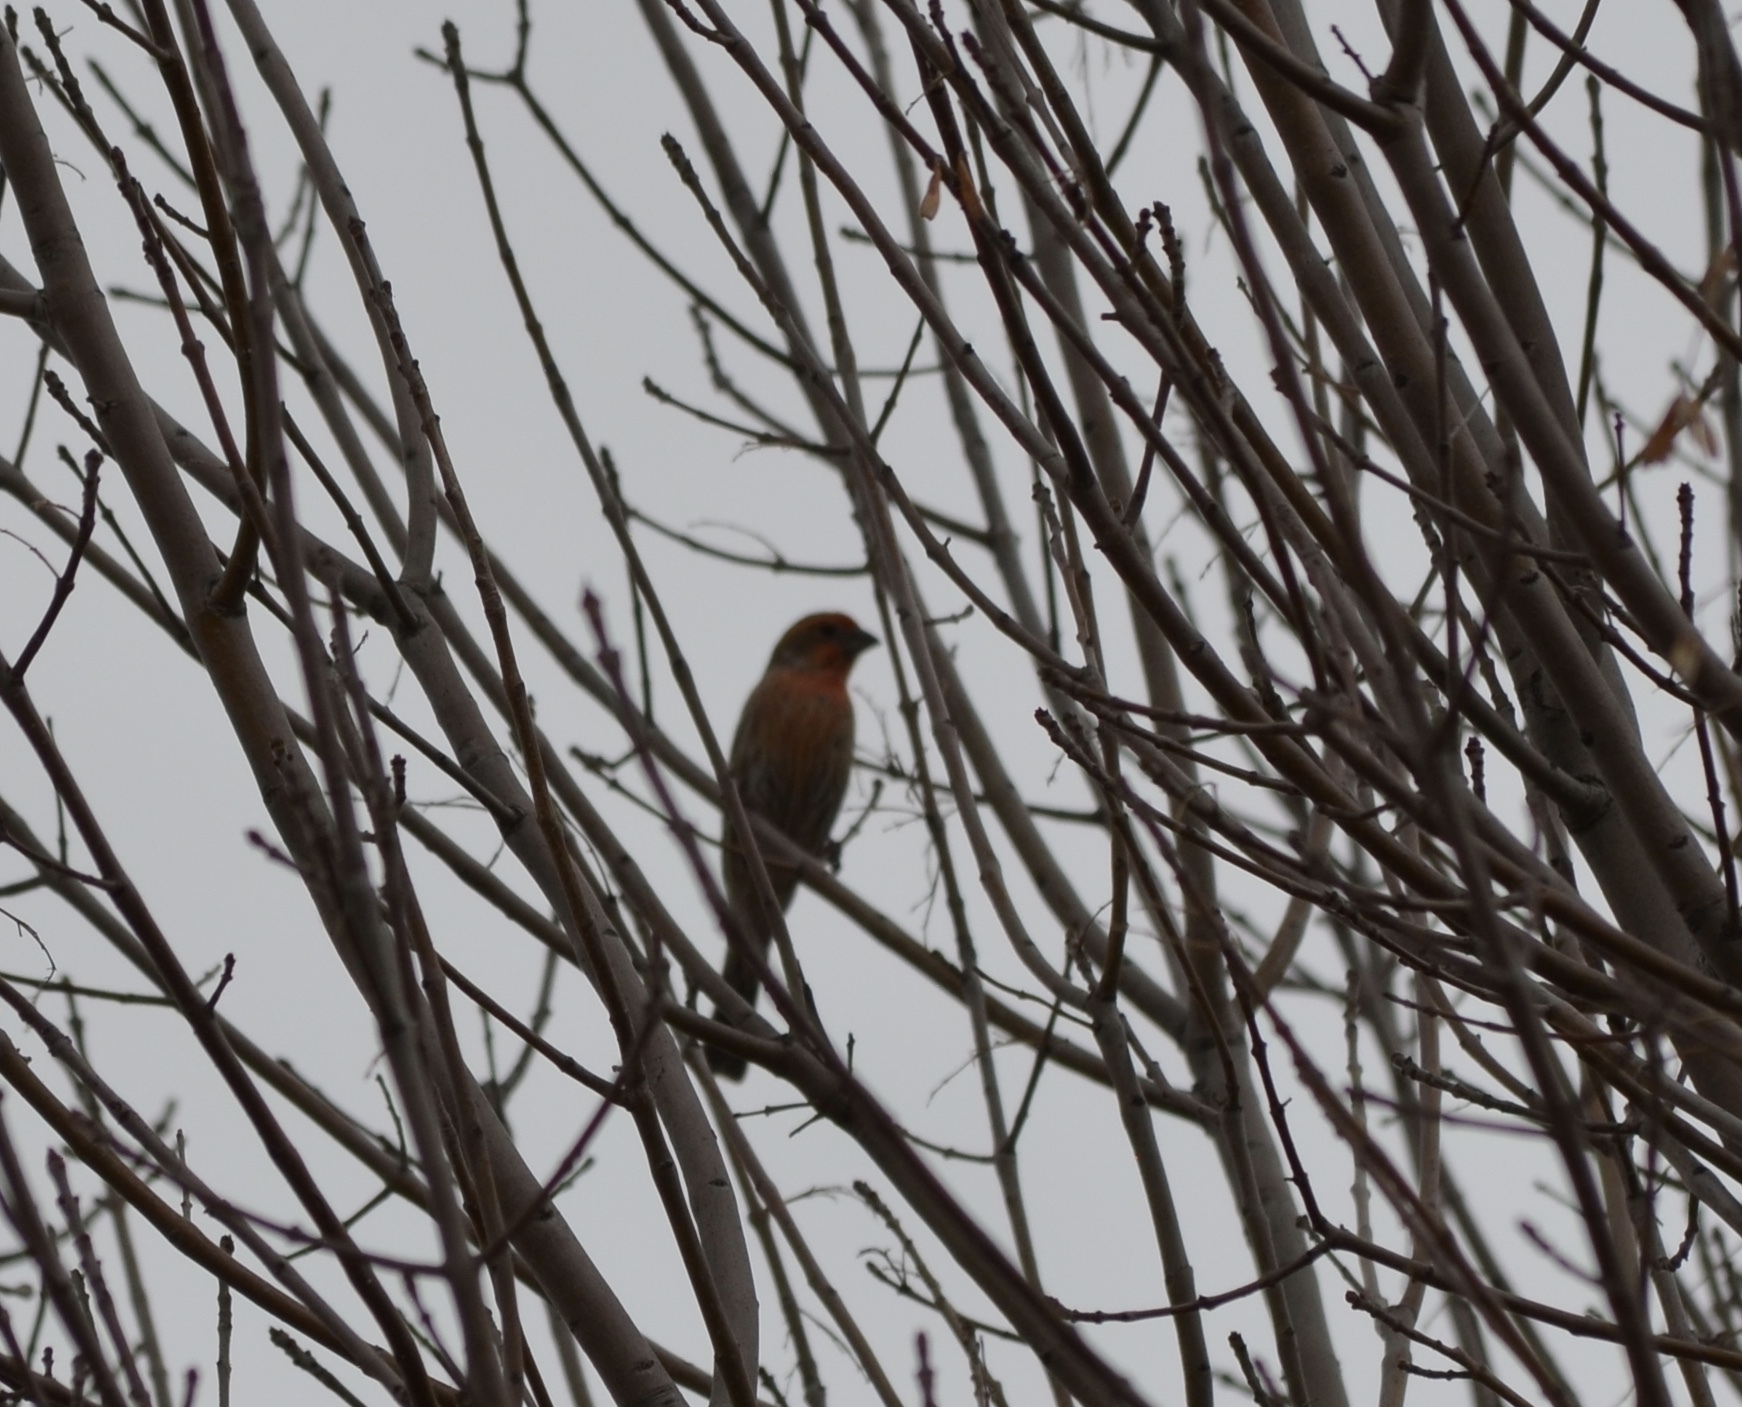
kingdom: Animalia
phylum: Chordata
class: Aves
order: Passeriformes
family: Fringillidae
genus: Haemorhous
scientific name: Haemorhous mexicanus
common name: House finch
